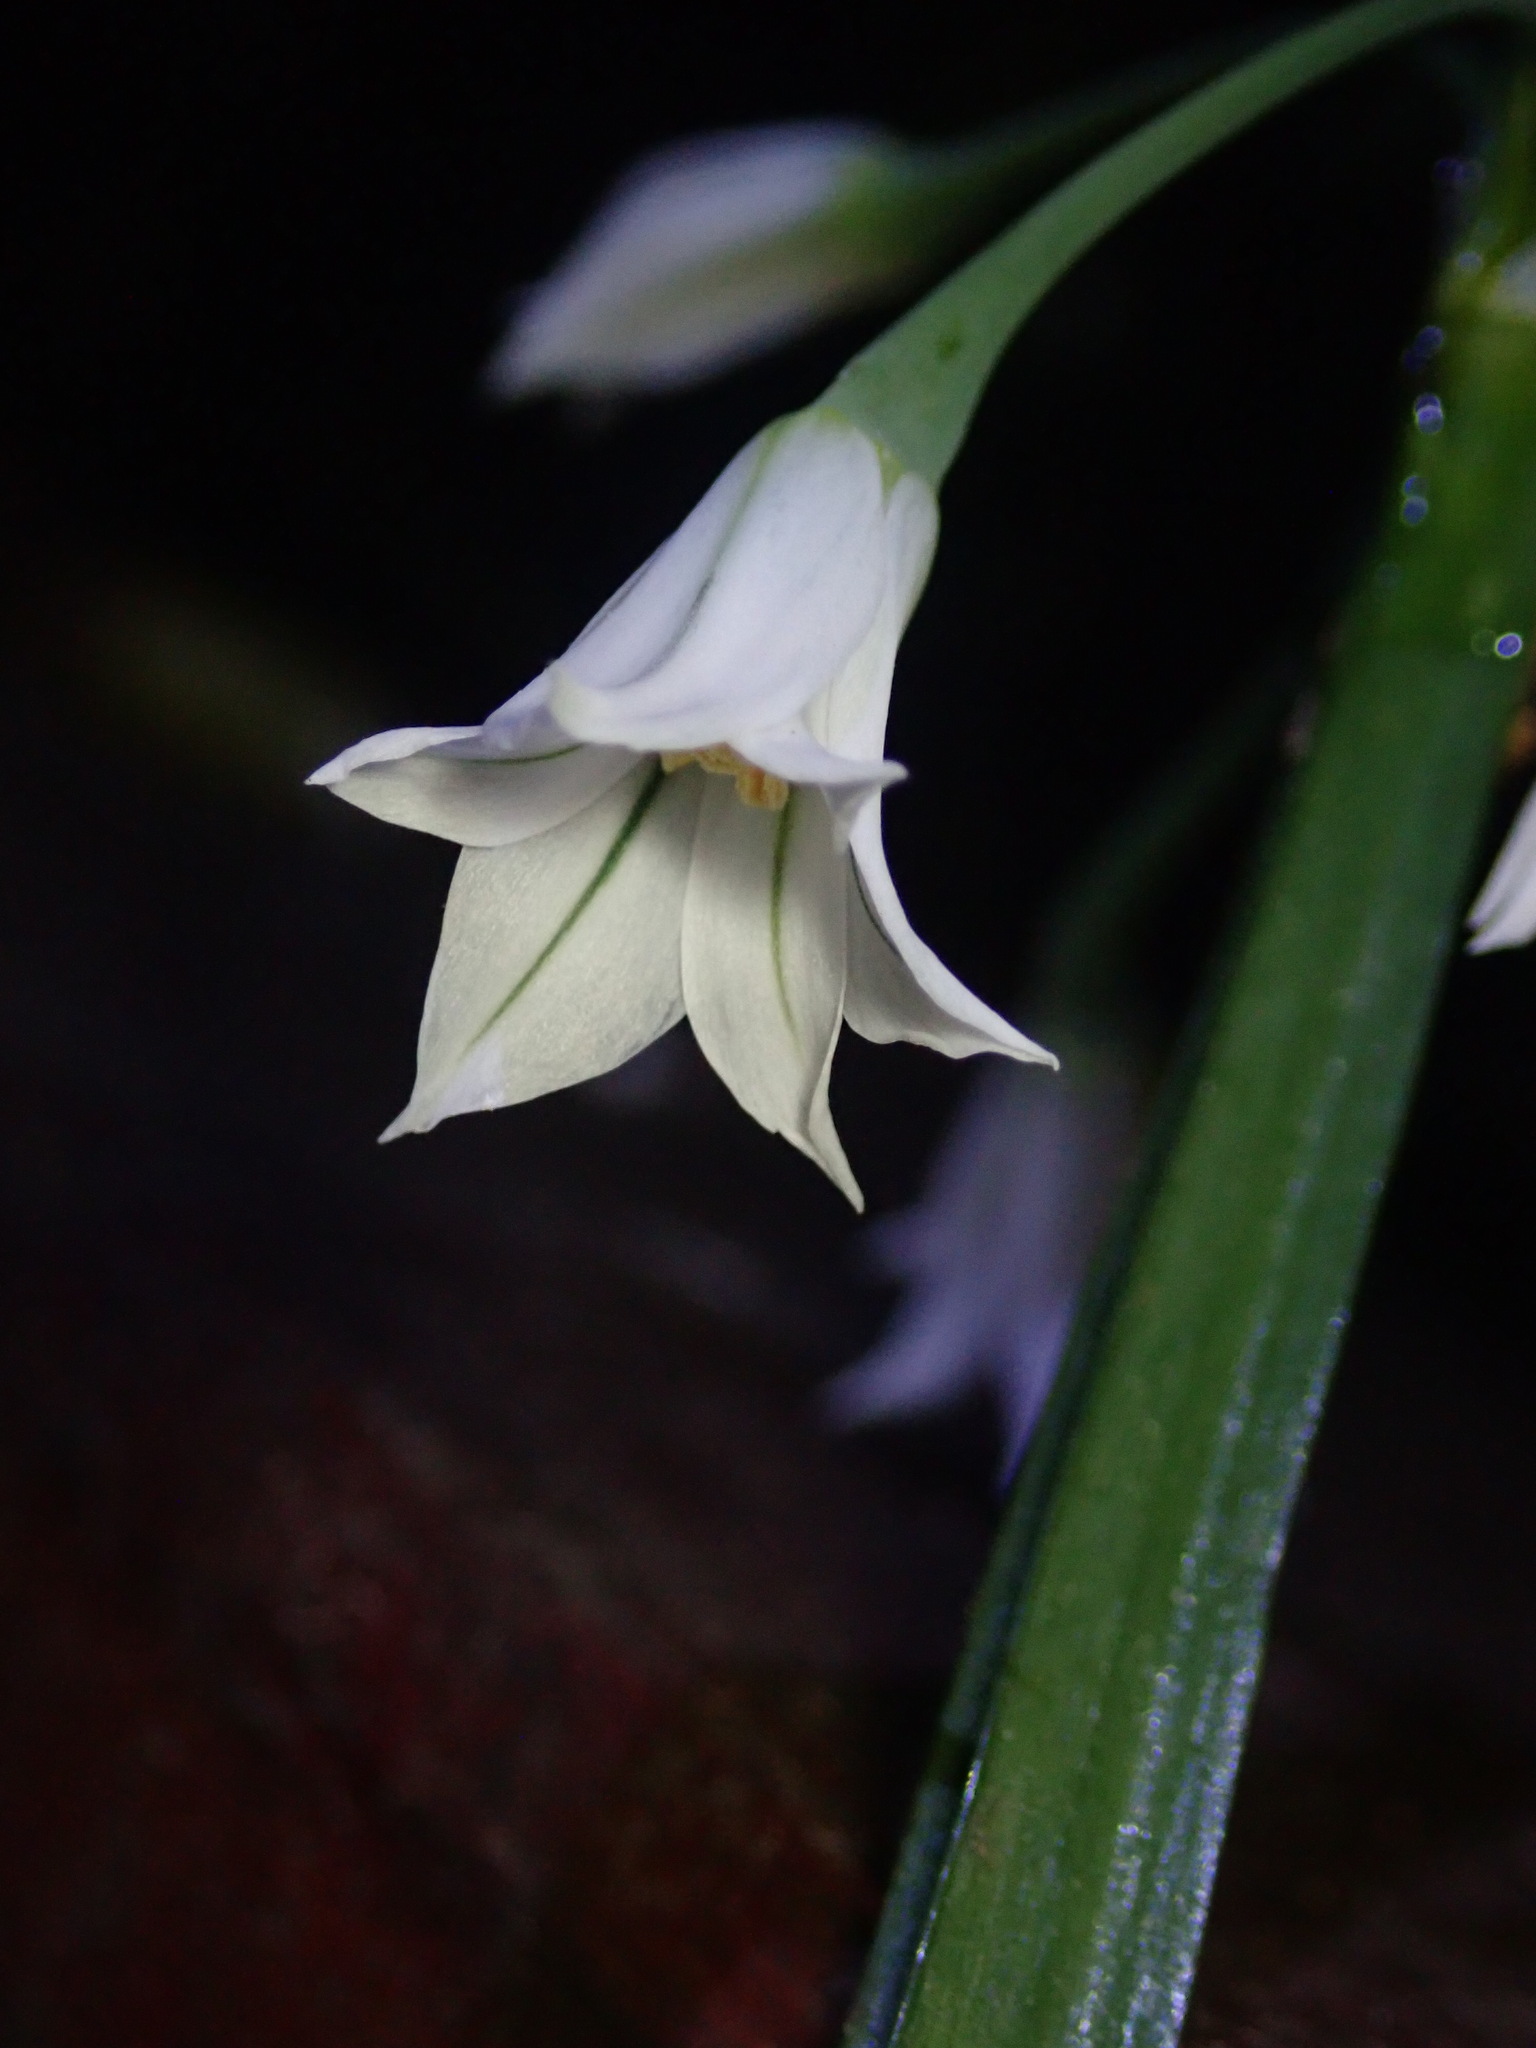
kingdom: Plantae
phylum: Tracheophyta
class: Liliopsida
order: Asparagales
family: Amaryllidaceae
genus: Allium
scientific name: Allium triquetrum
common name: Three-cornered garlic
